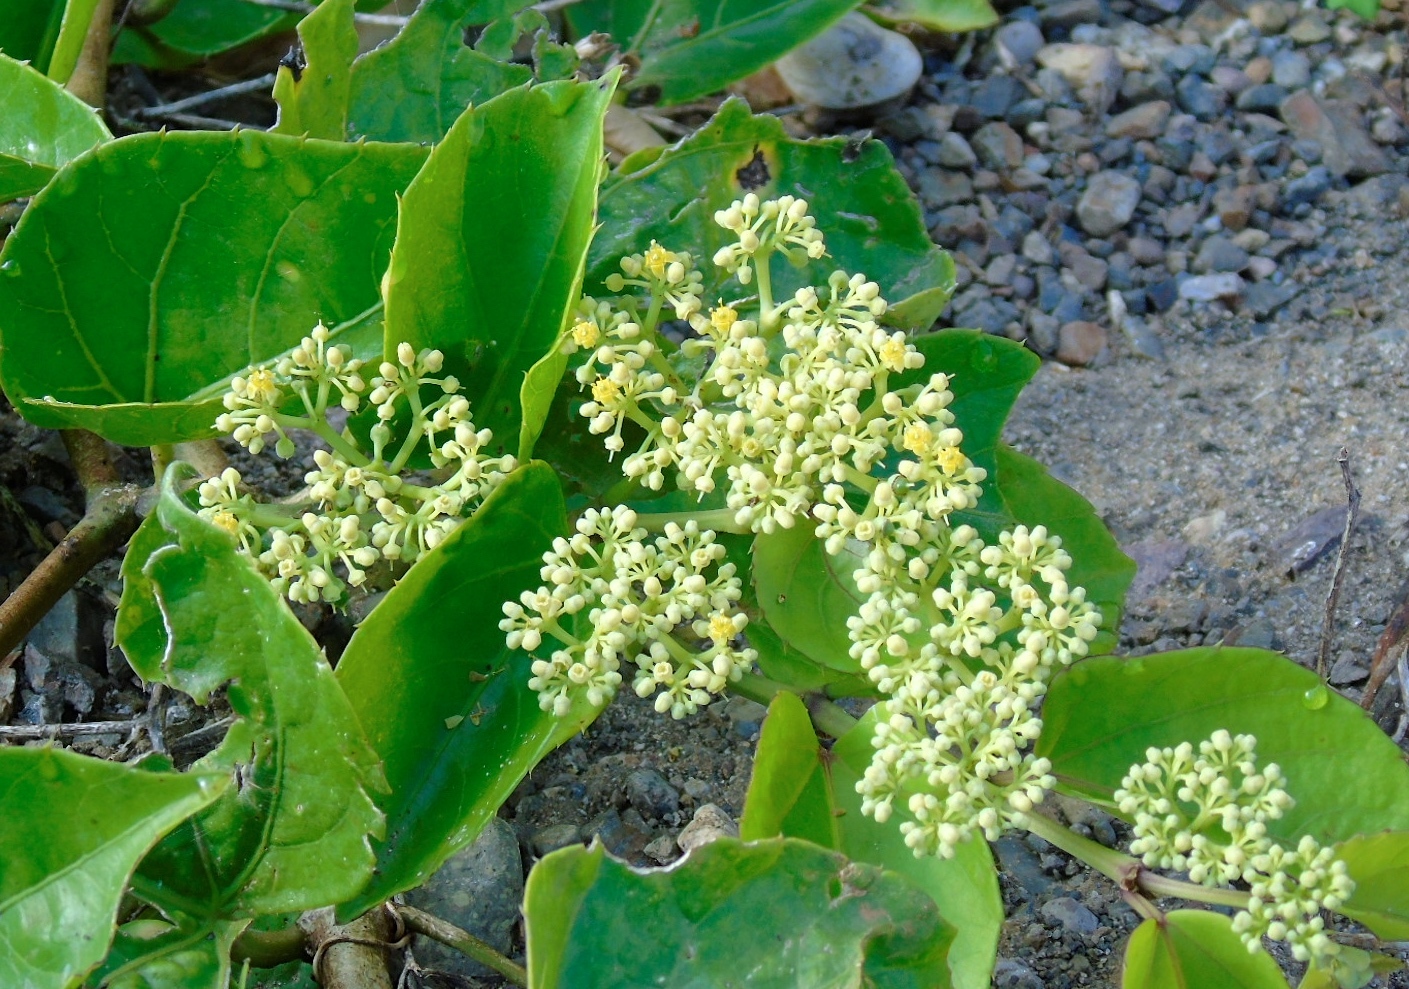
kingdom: Plantae
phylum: Tracheophyta
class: Magnoliopsida
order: Vitales
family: Vitaceae
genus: Cissus
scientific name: Cissus verticillata
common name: Princess vine
